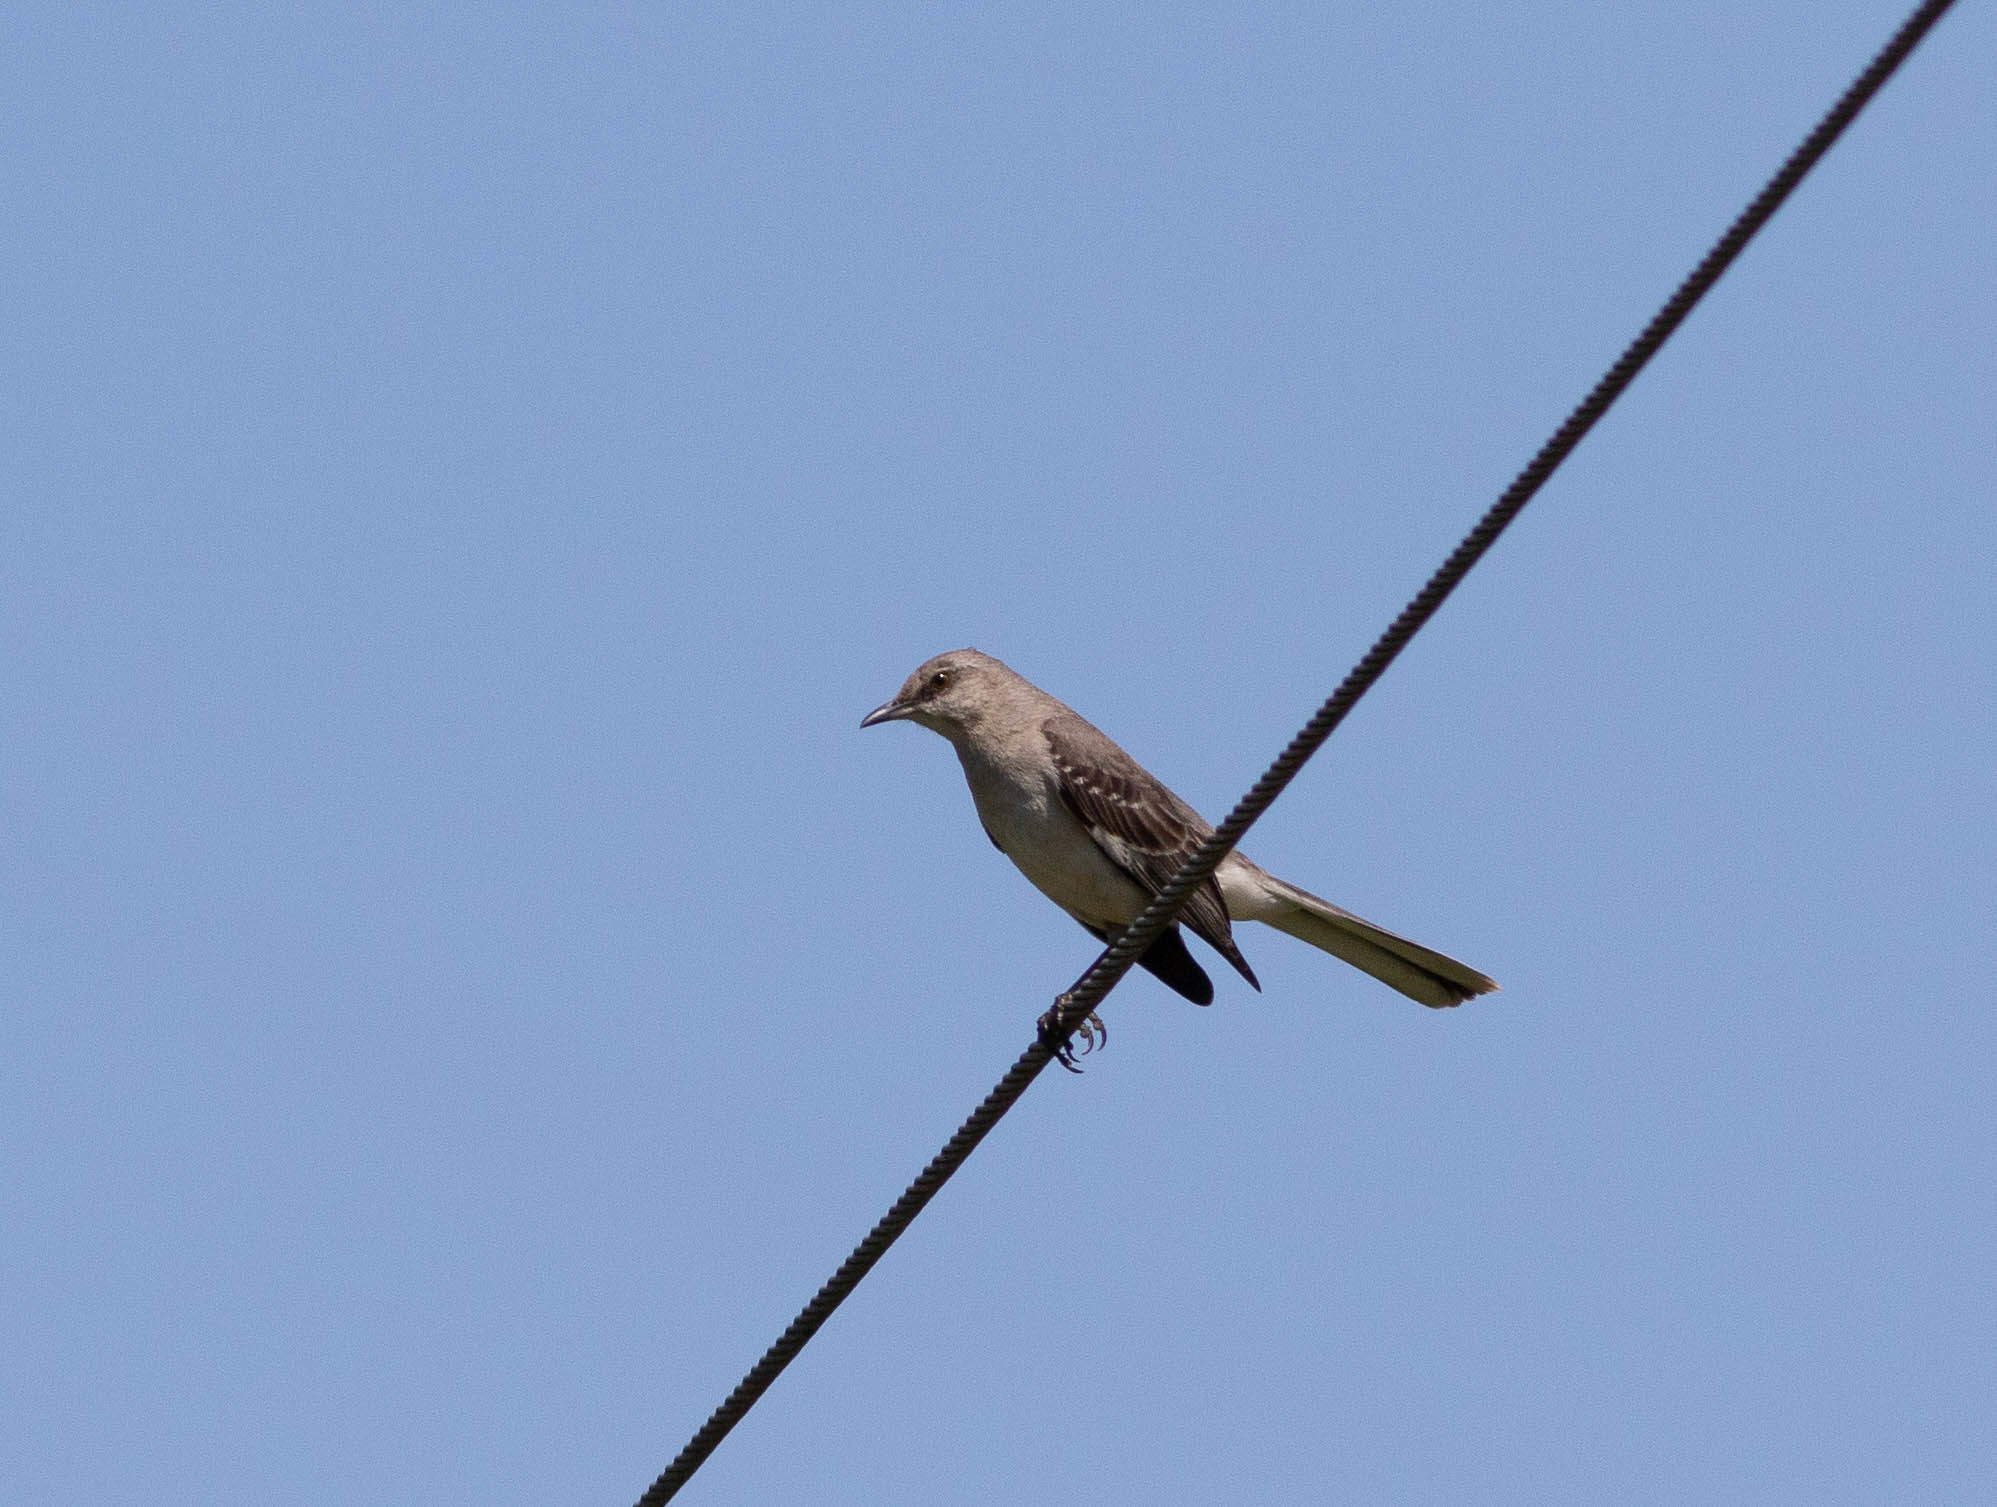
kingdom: Animalia
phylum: Chordata
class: Aves
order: Passeriformes
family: Mimidae
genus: Mimus
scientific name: Mimus polyglottos
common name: Northern mockingbird
